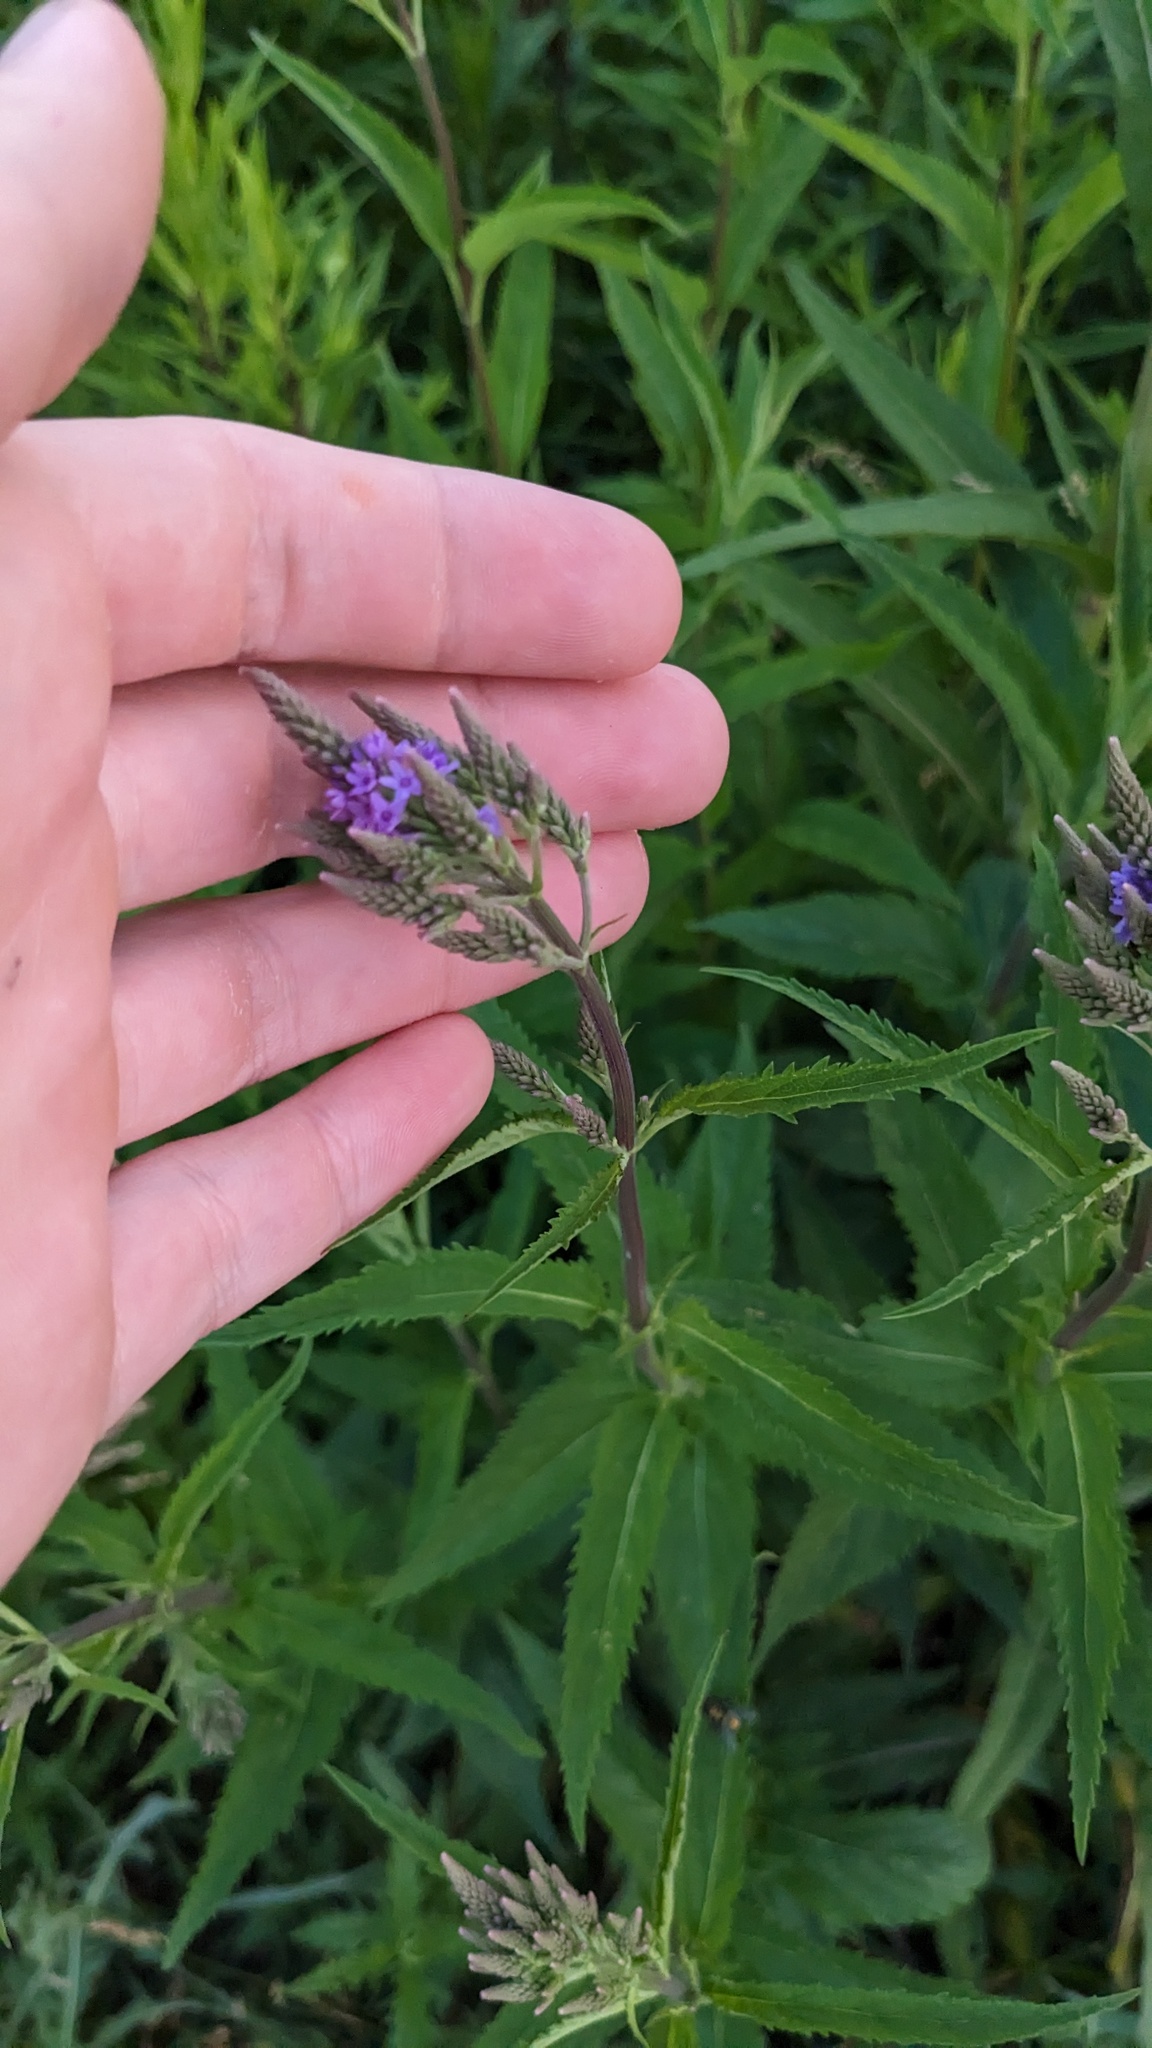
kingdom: Plantae
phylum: Tracheophyta
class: Magnoliopsida
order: Lamiales
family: Verbenaceae
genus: Verbena
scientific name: Verbena hastata
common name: American blue vervain
